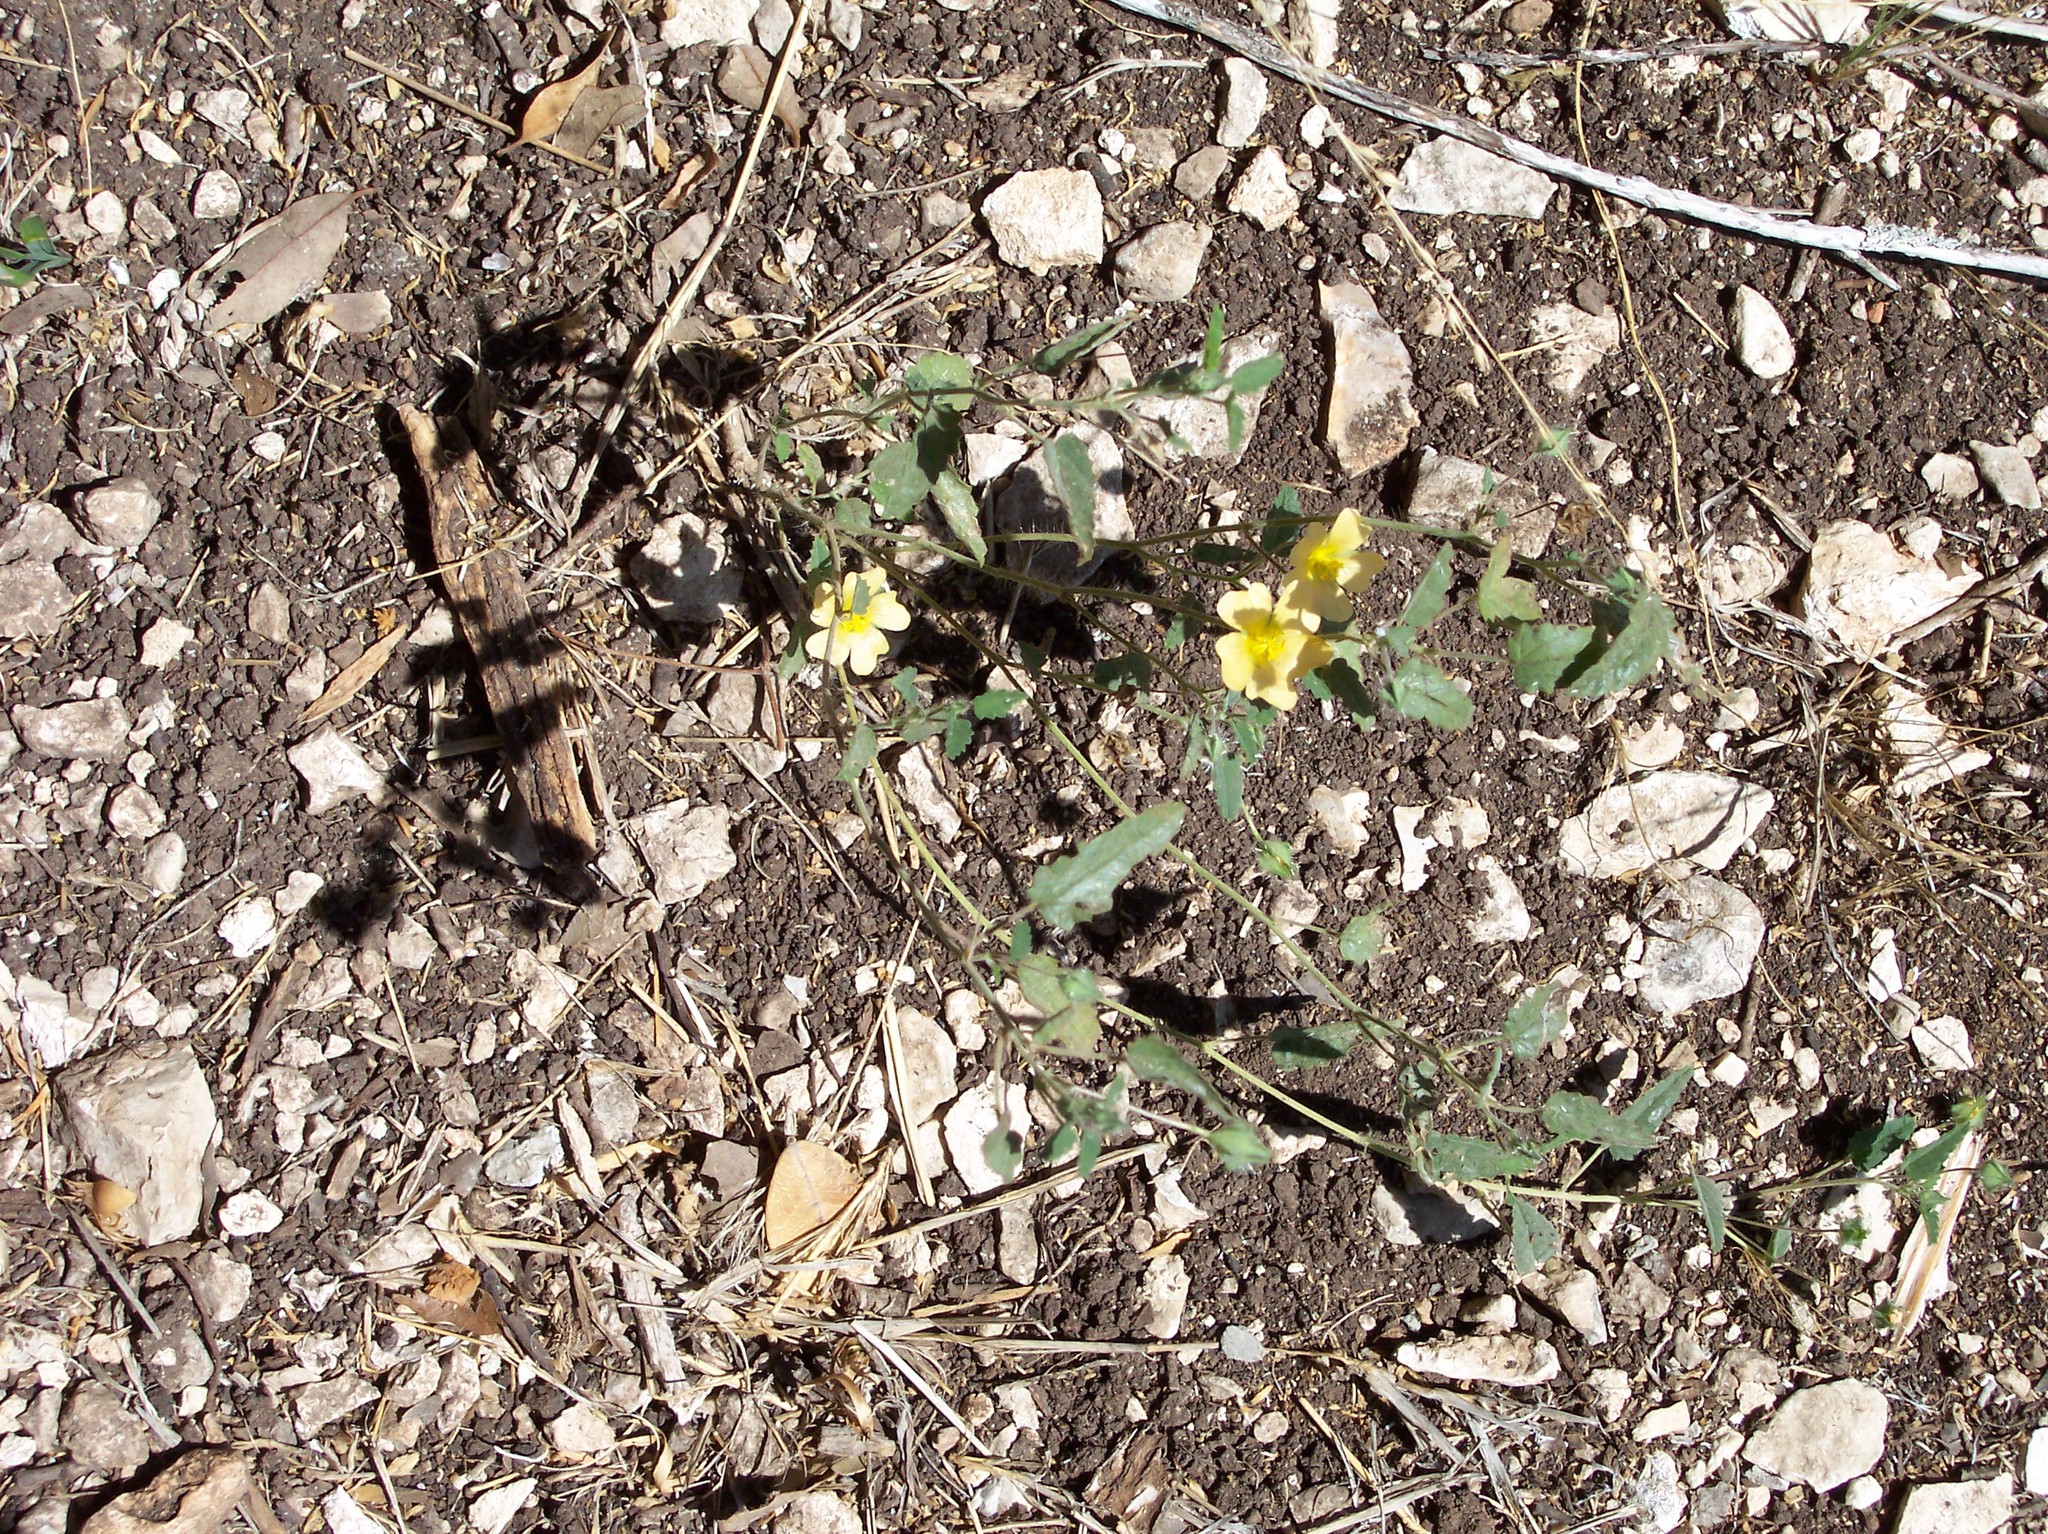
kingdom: Plantae
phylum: Tracheophyta
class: Magnoliopsida
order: Malvales
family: Malvaceae
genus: Sida
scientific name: Sida abutilifolia
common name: Spreading fanpetals
